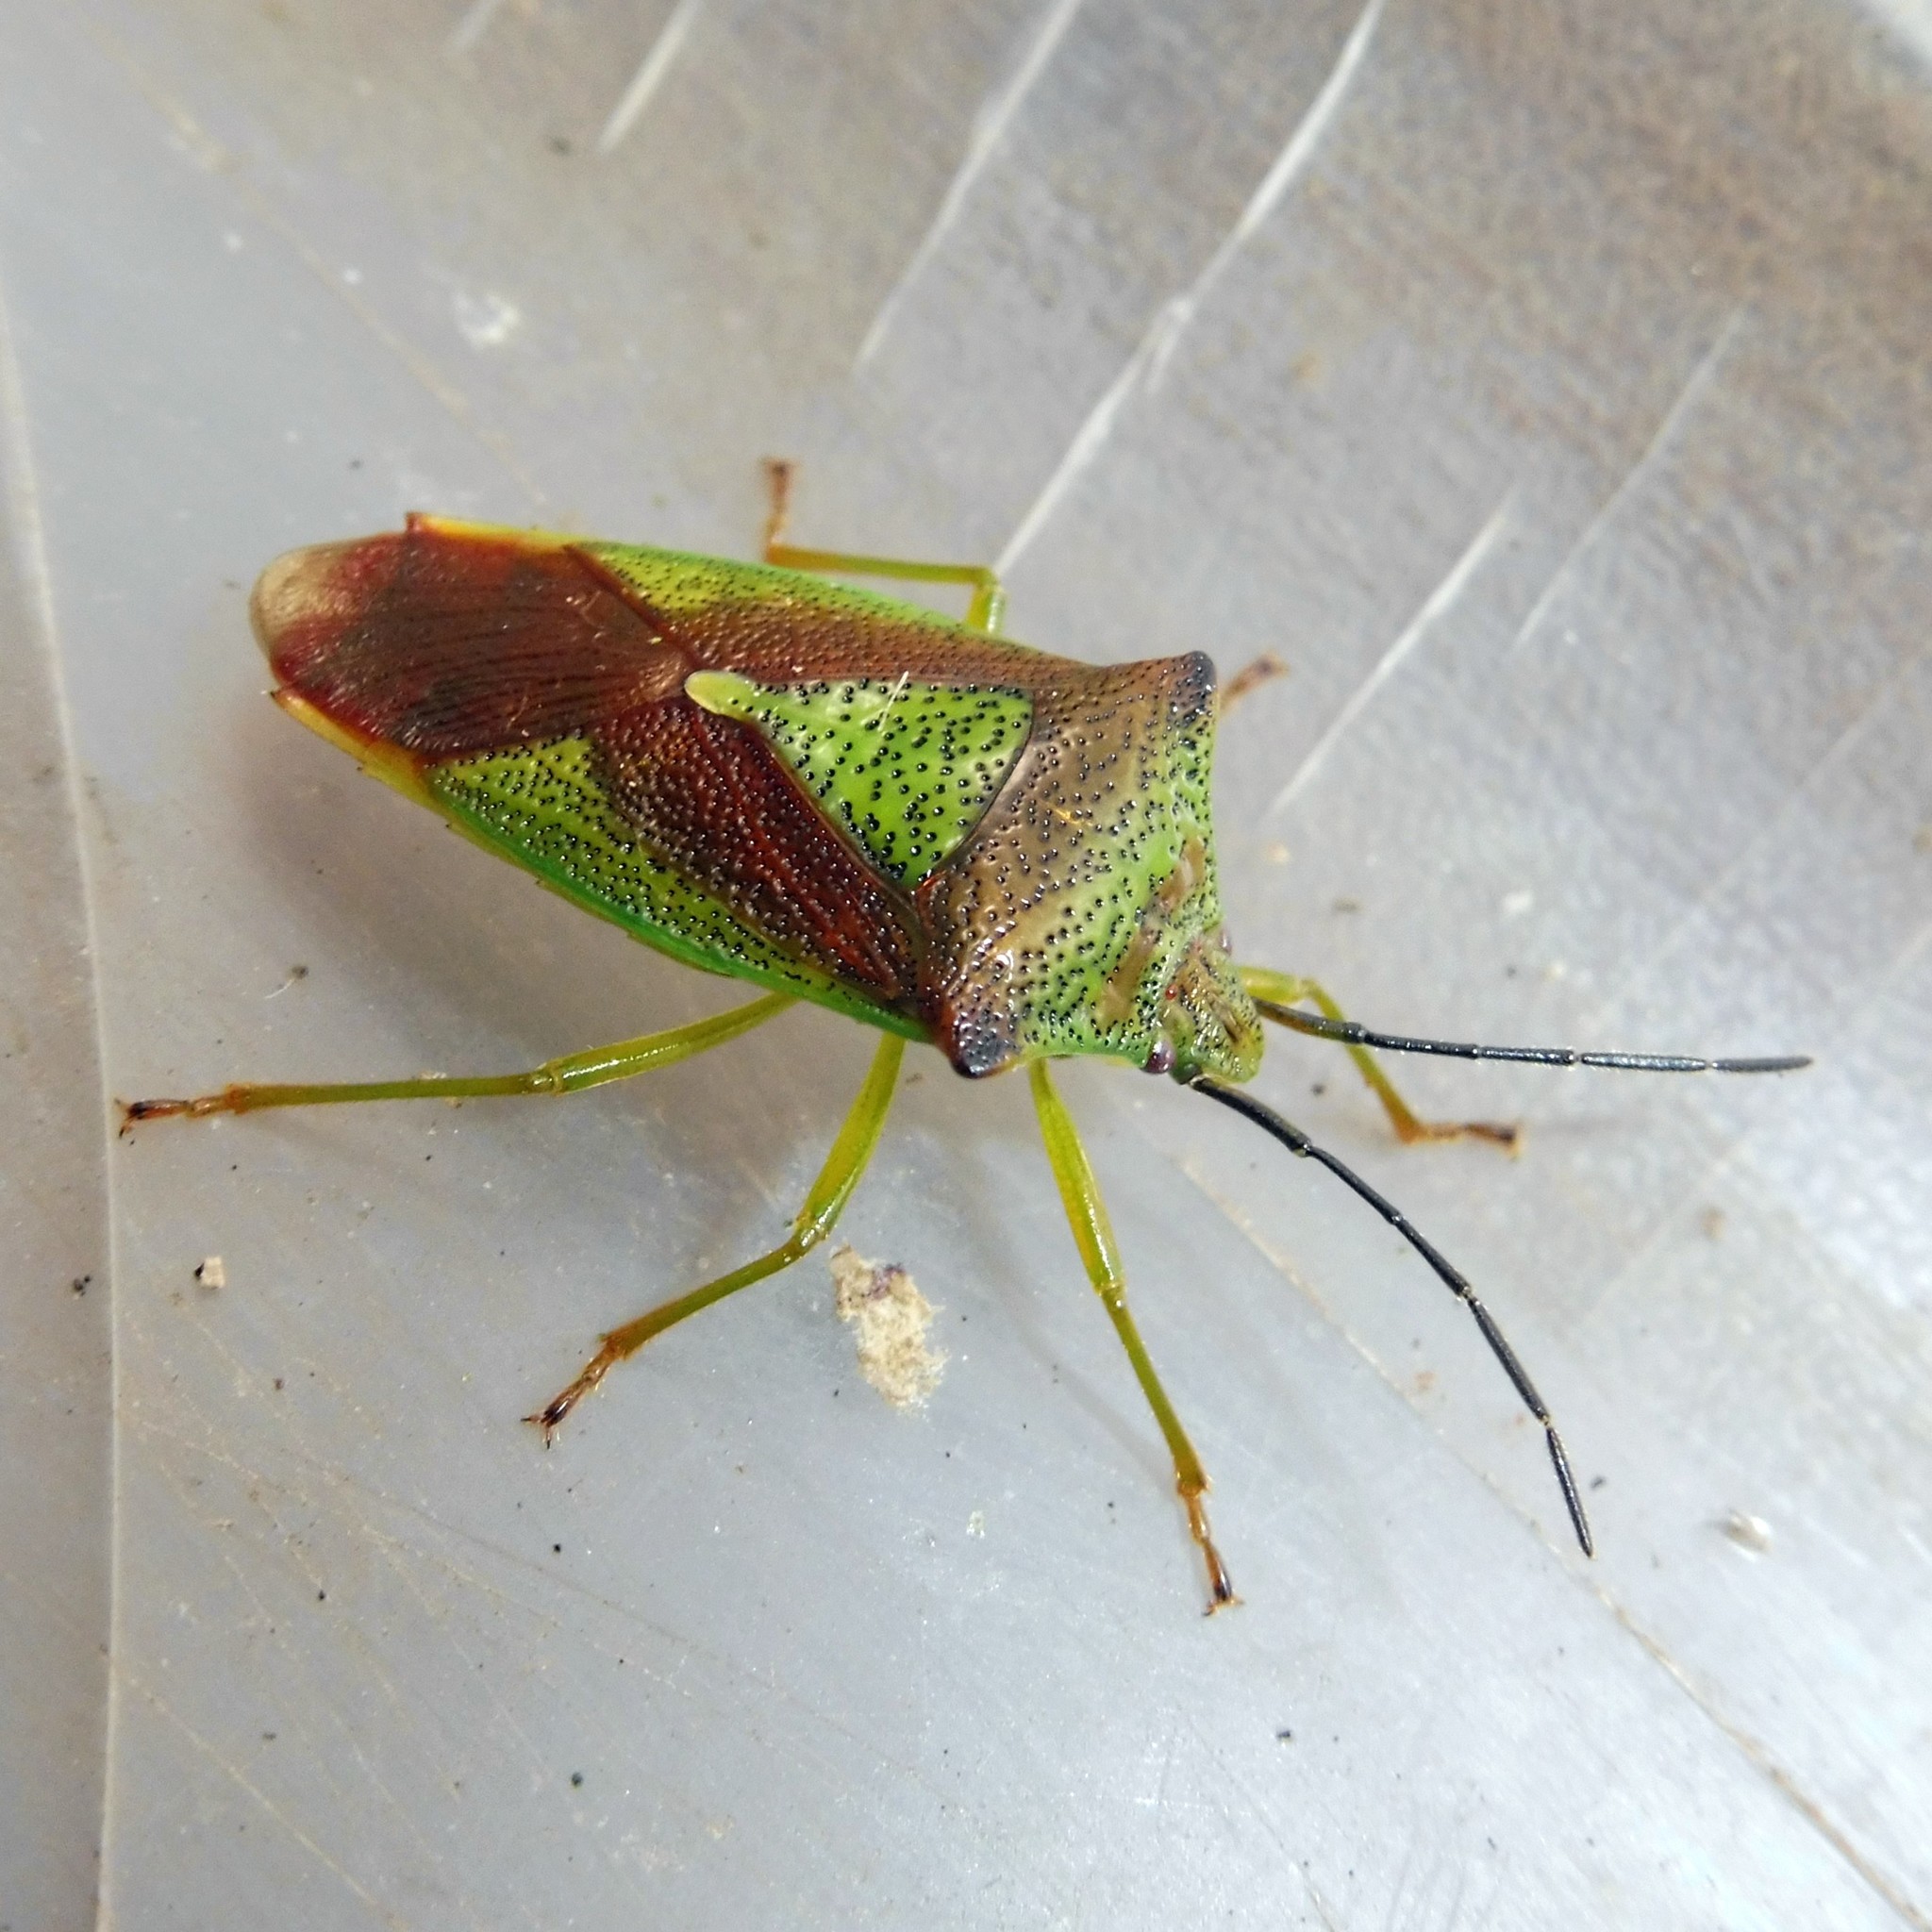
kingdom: Animalia
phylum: Arthropoda
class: Insecta
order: Hemiptera
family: Acanthosomatidae
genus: Acanthosoma
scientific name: Acanthosoma haemorrhoidale
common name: Hawthorn shieldbug
